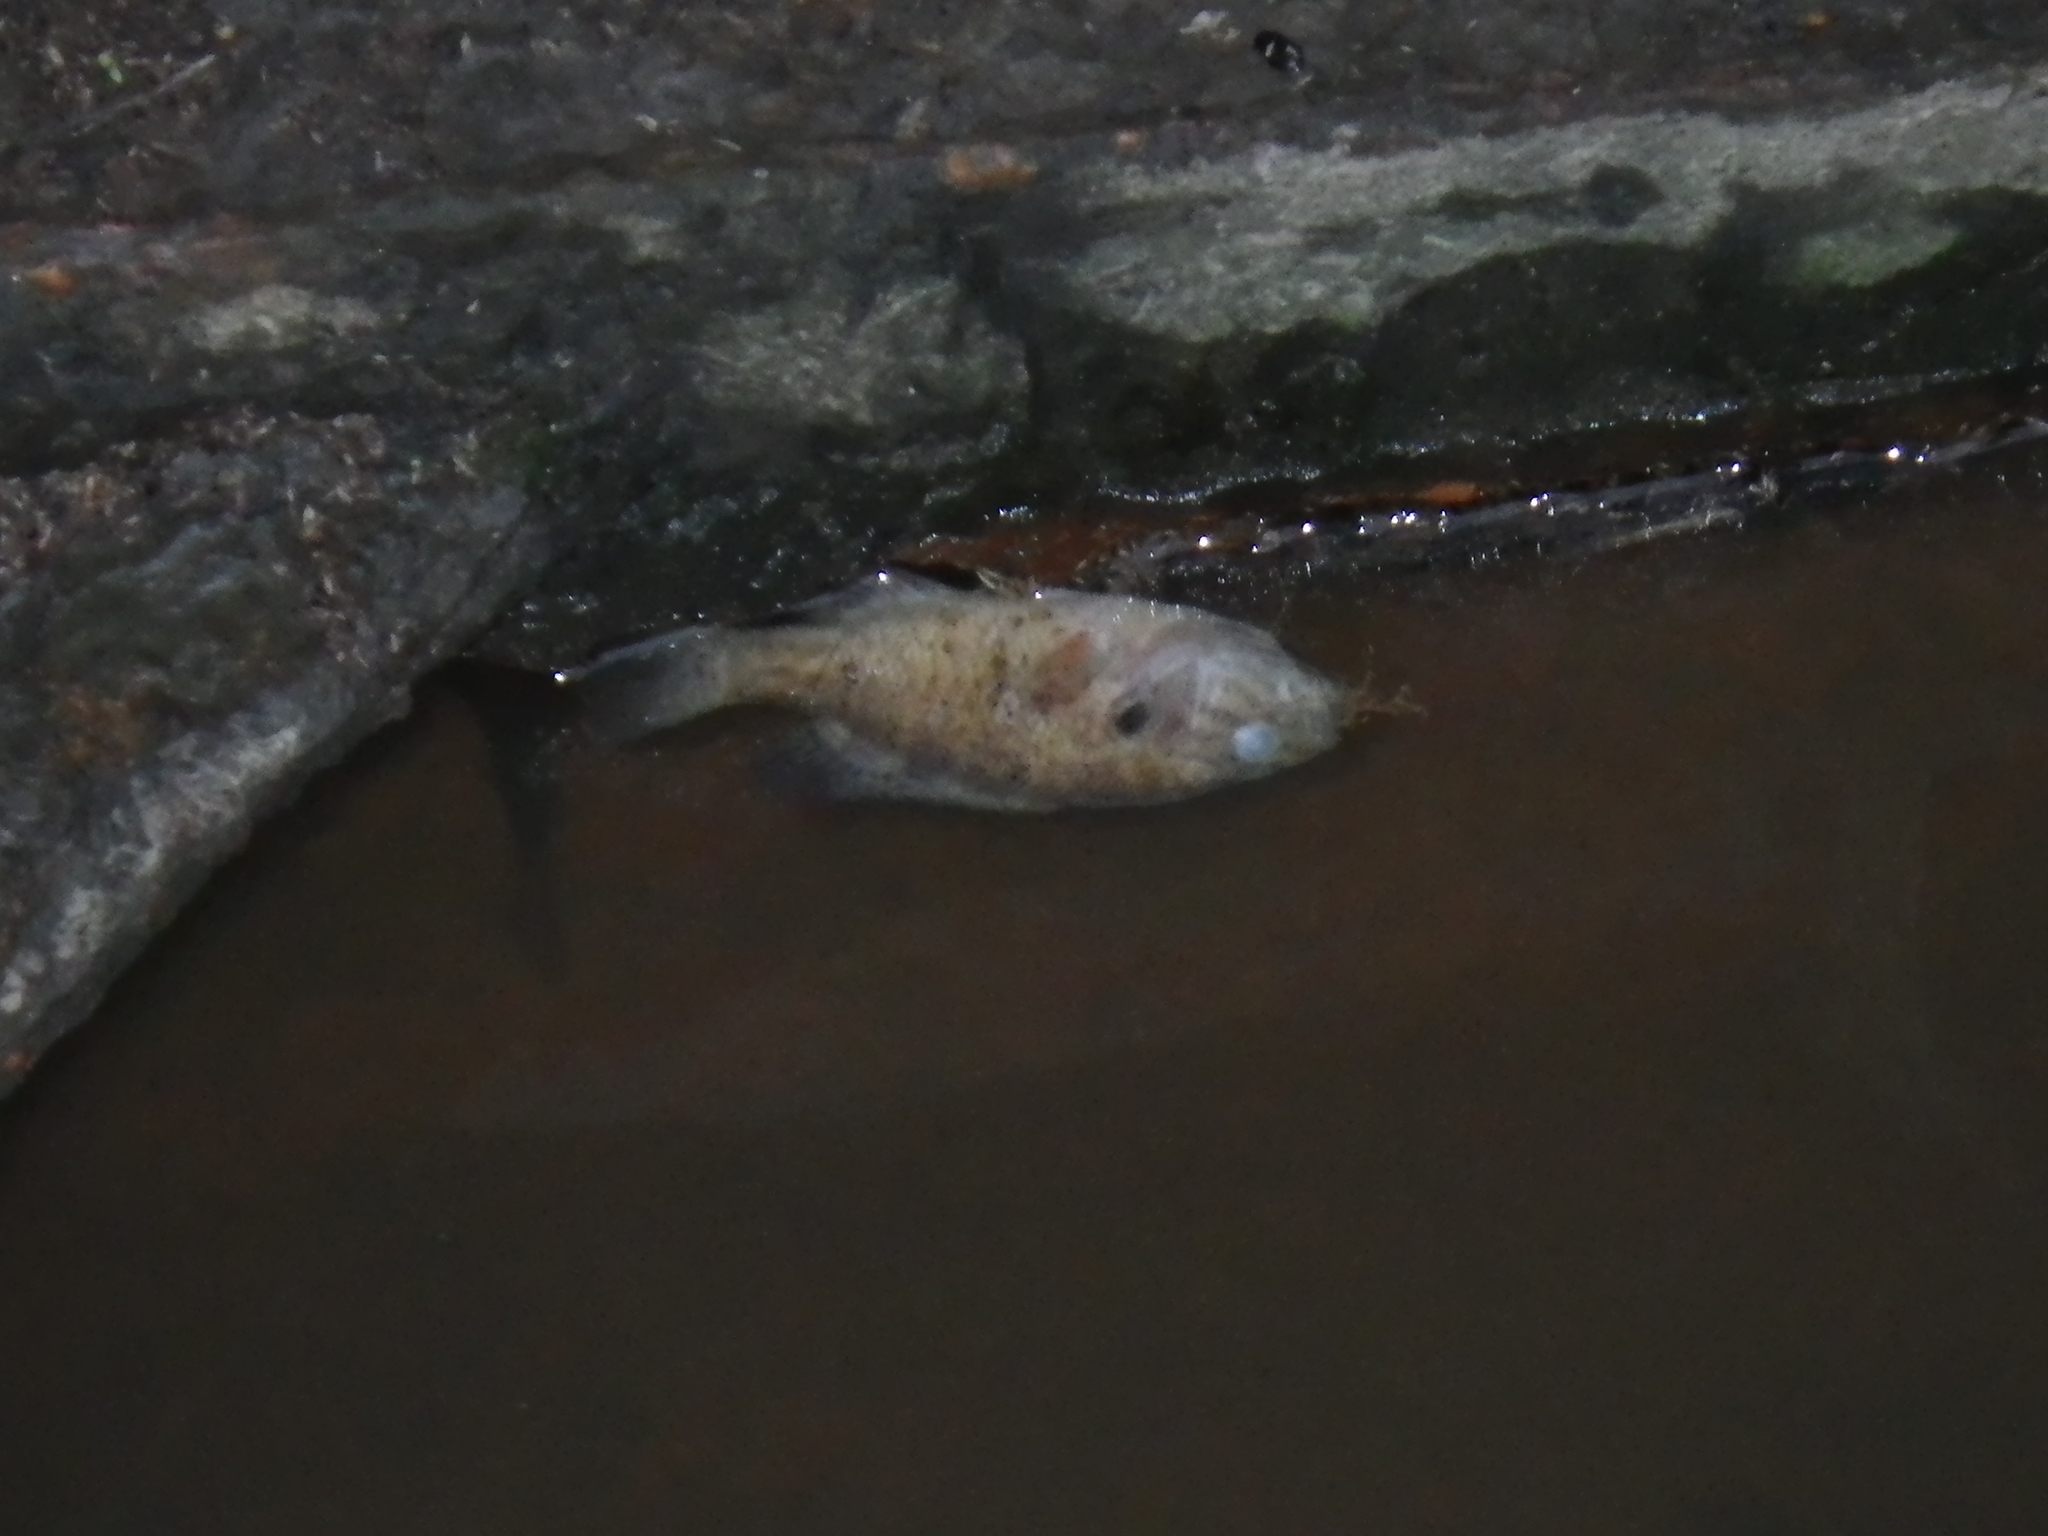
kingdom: Animalia
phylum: Chordata
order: Perciformes
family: Centrarchidae
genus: Lepomis
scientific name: Lepomis macrochirus
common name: Bluegill
